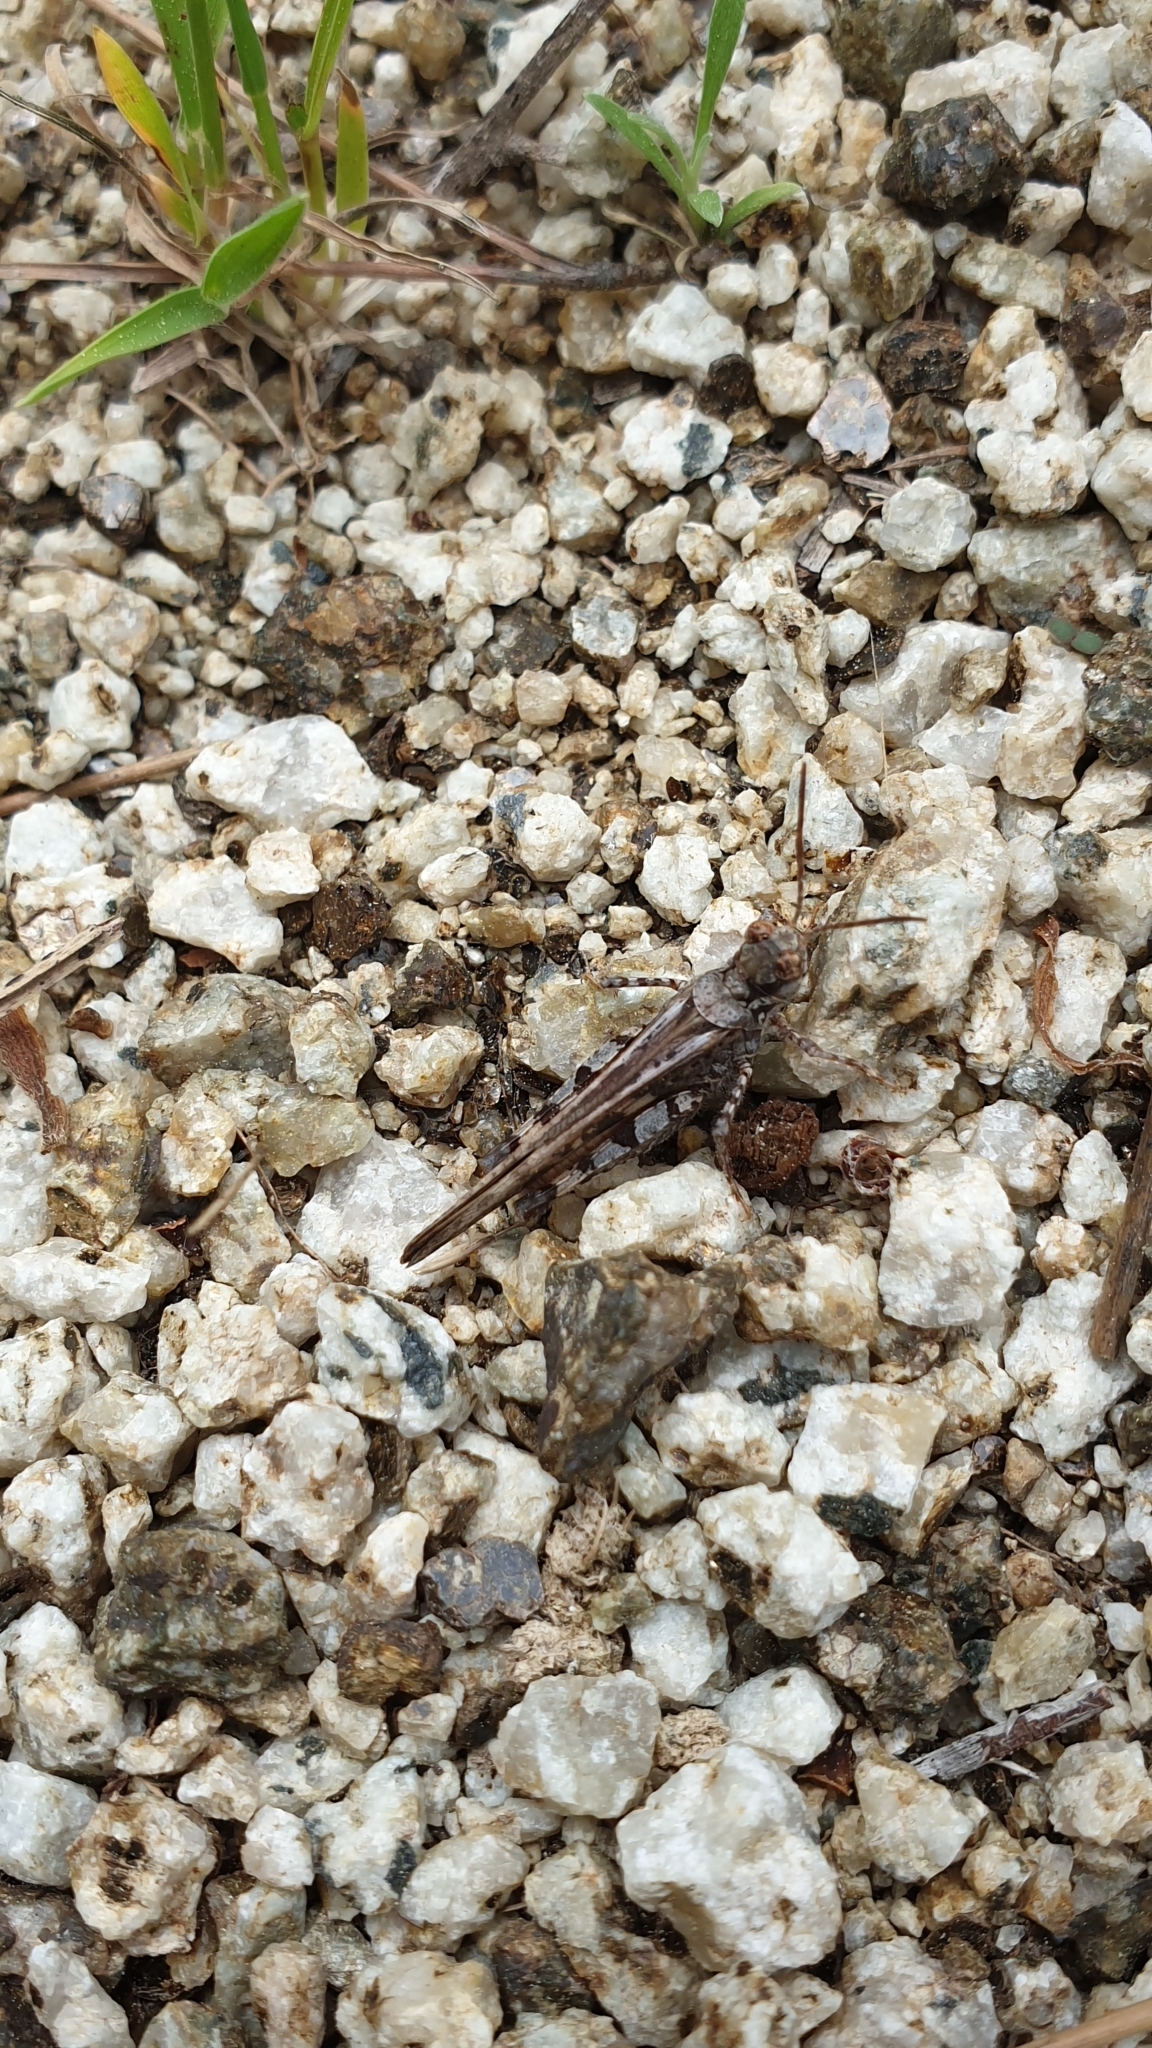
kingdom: Animalia
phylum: Arthropoda
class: Insecta
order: Orthoptera
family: Acrididae
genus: Acrotylus
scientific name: Acrotylus patruelis
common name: Slender burrowing grasshopper
